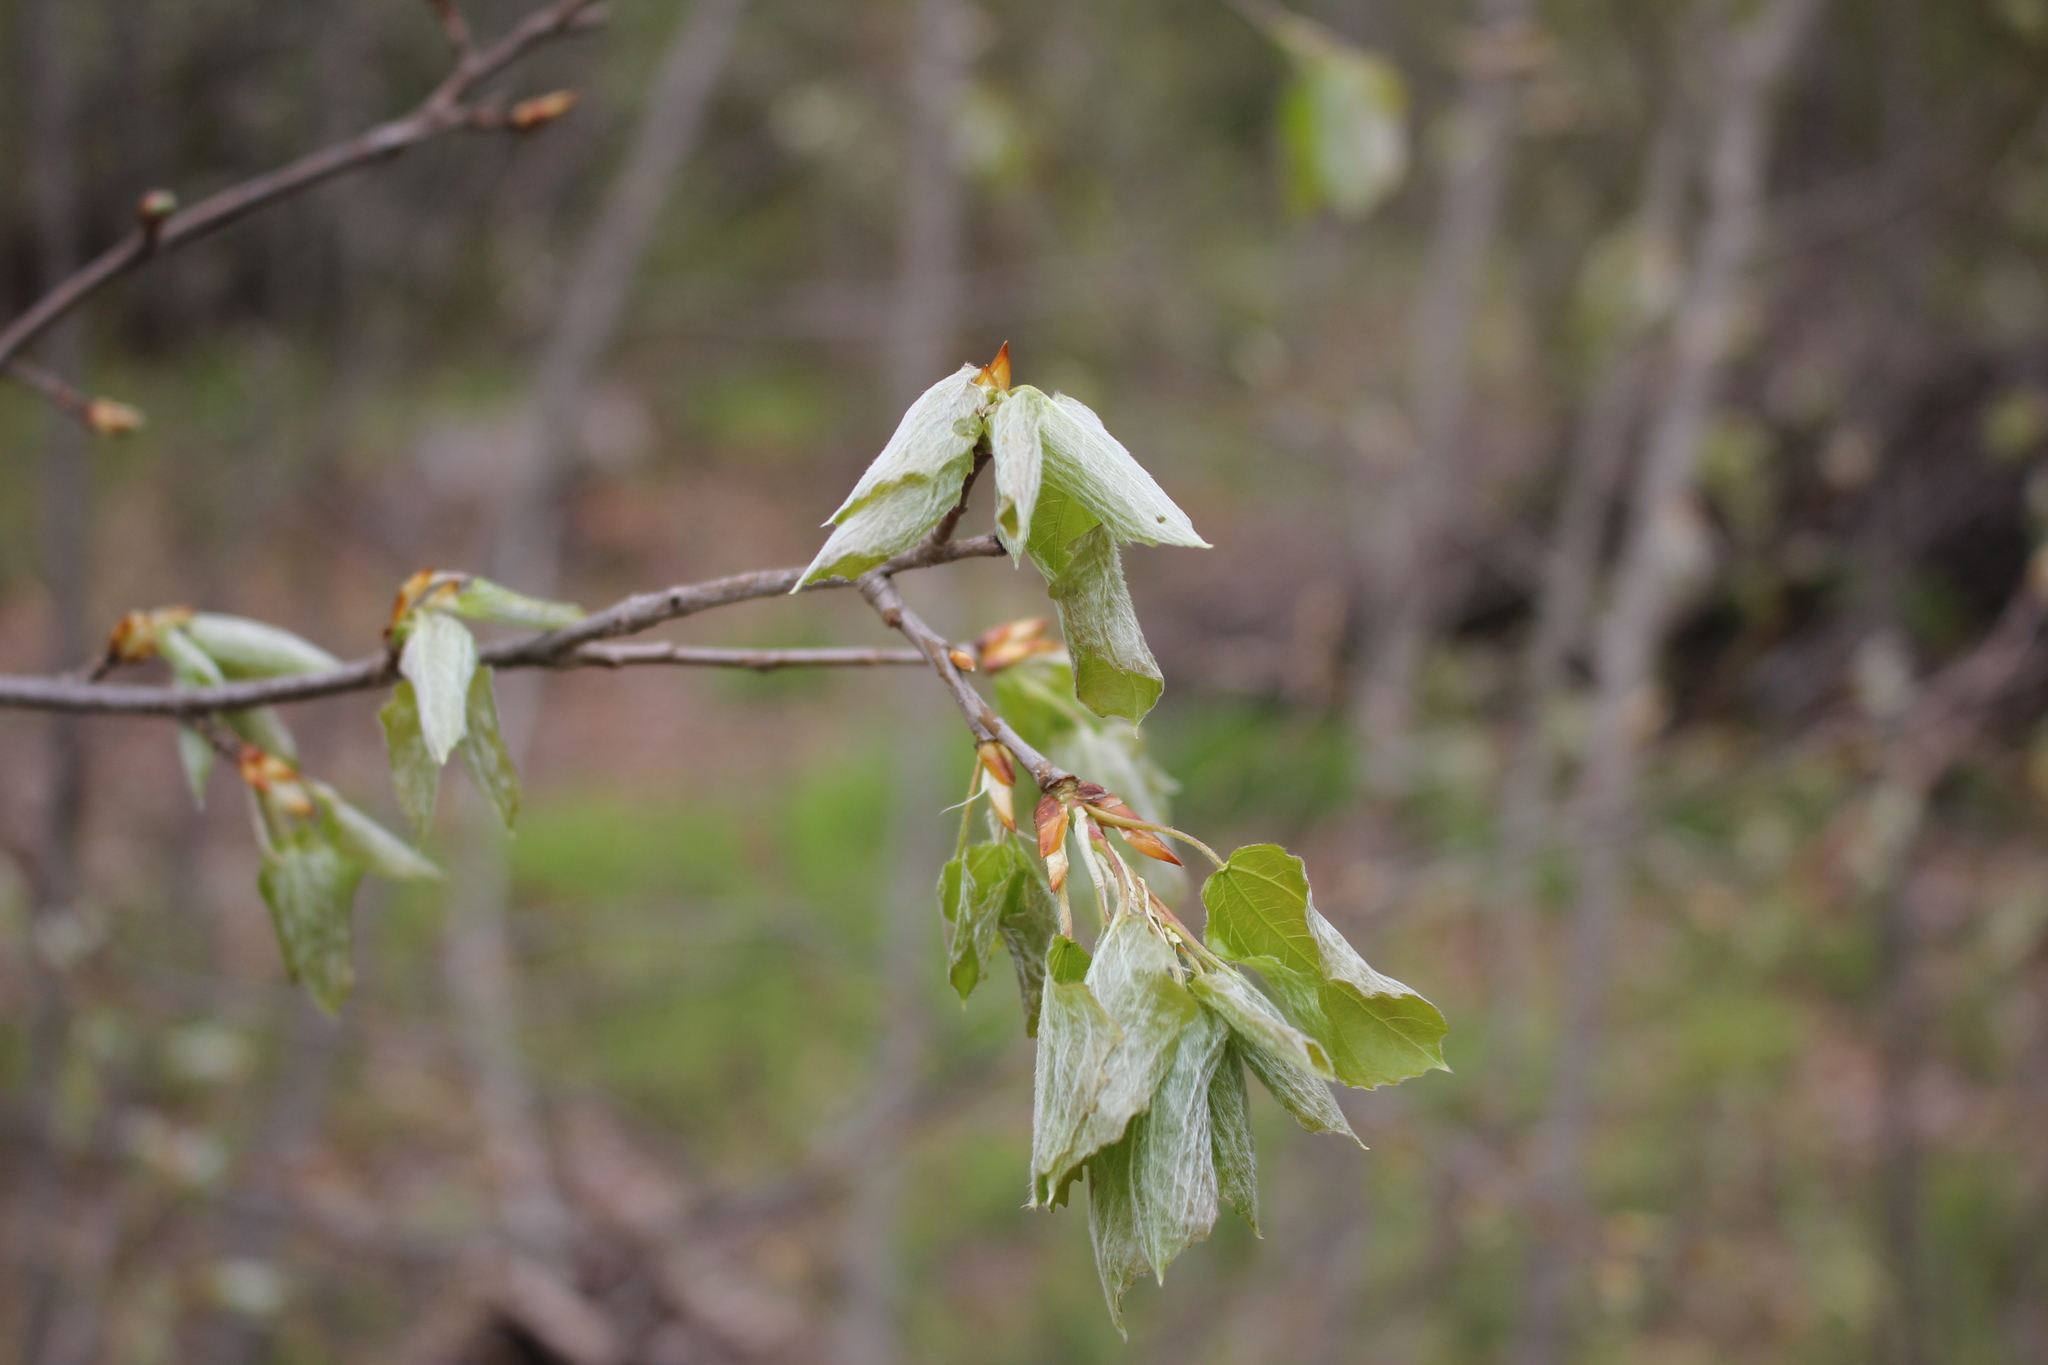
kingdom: Plantae
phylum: Tracheophyta
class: Magnoliopsida
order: Malpighiales
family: Salicaceae
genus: Populus
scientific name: Populus tremula
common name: European aspen
